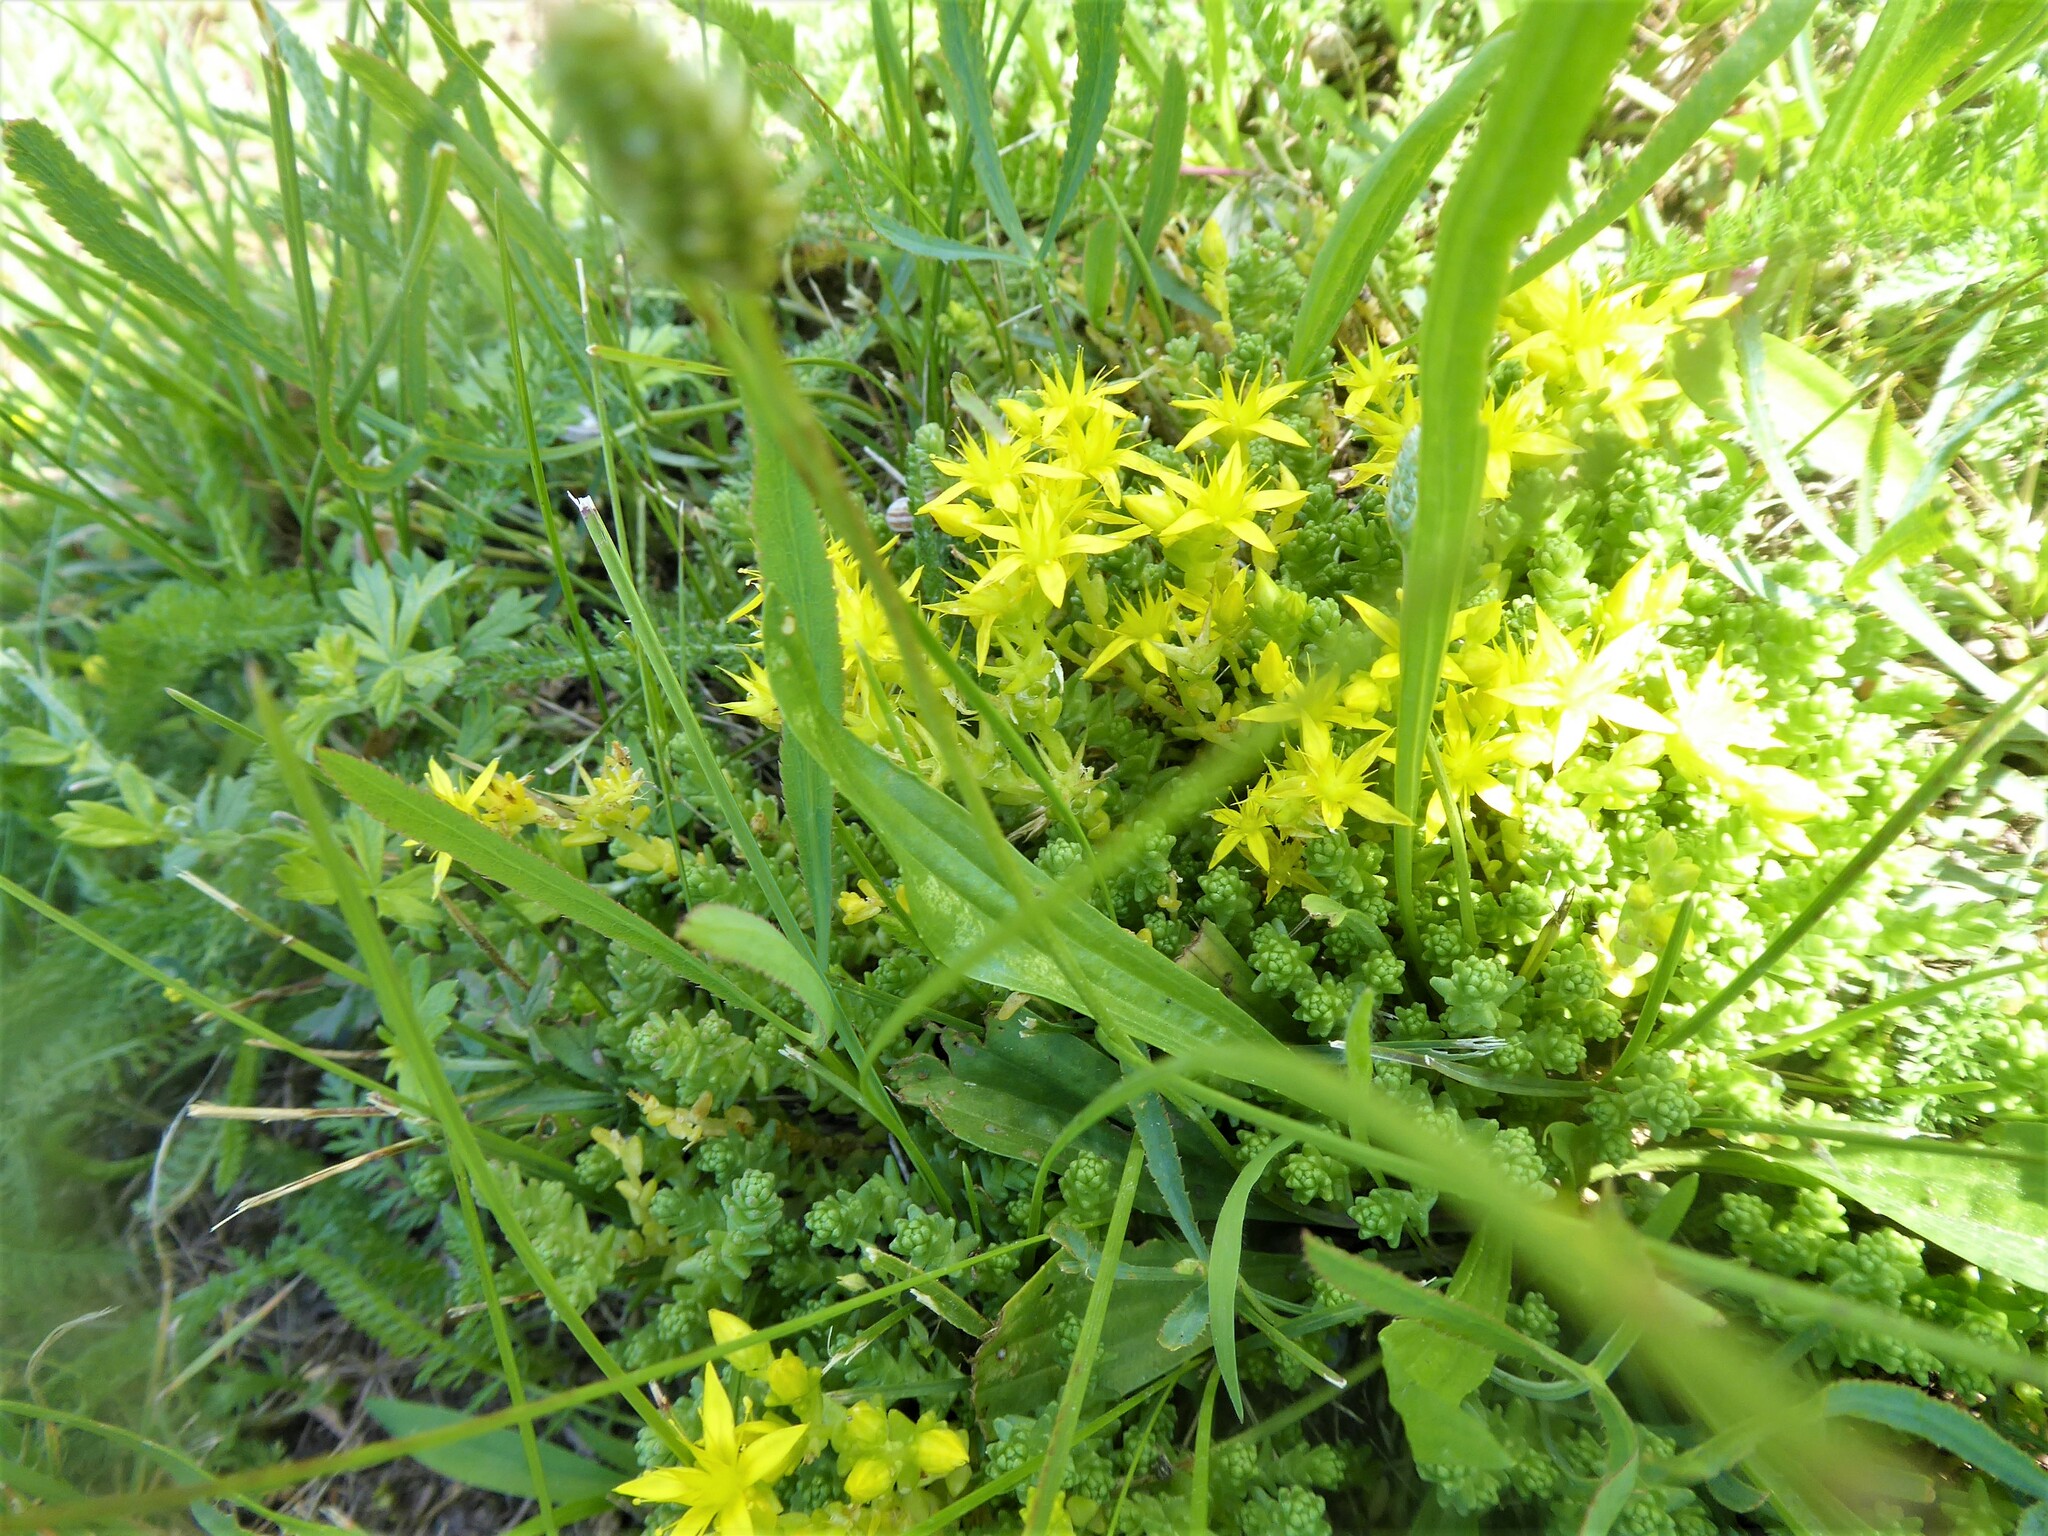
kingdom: Plantae
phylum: Tracheophyta
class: Magnoliopsida
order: Saxifragales
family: Crassulaceae
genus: Sedum
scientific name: Sedum acre
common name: Biting stonecrop
